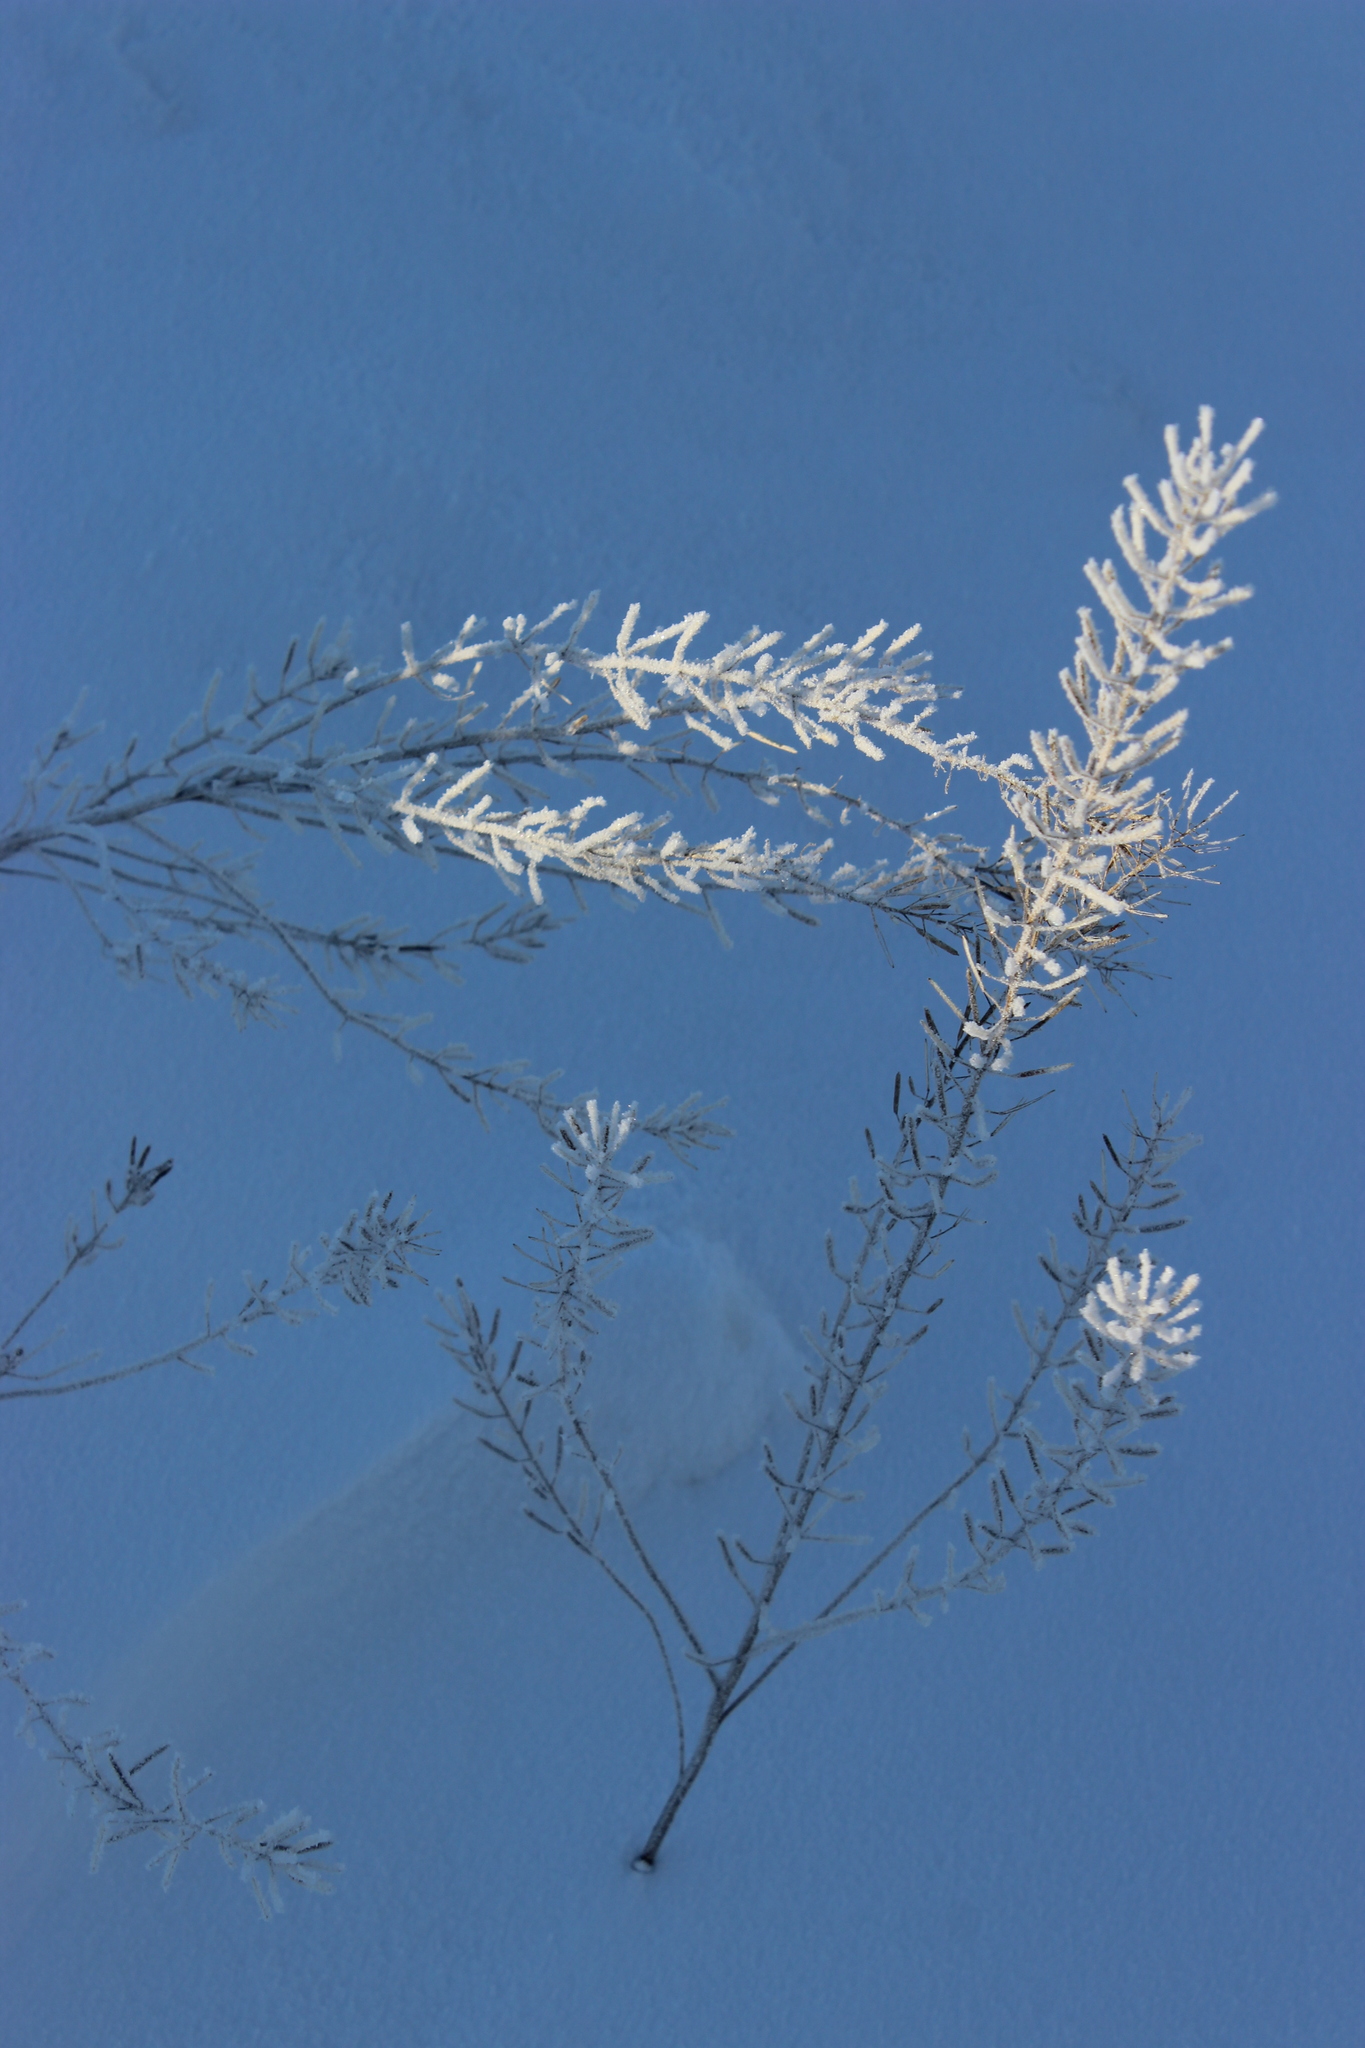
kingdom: Plantae
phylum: Tracheophyta
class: Magnoliopsida
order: Brassicales
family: Brassicaceae
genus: Erysimum
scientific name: Erysimum hieraciifolium
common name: European wallflower
